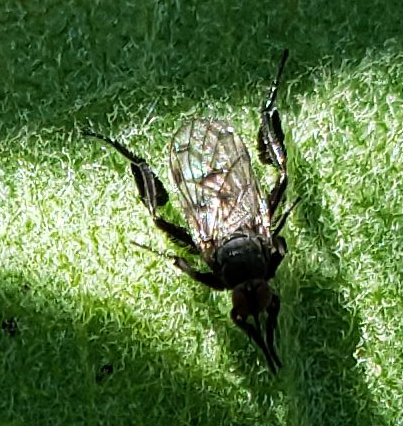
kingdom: Animalia
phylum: Arthropoda
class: Insecta
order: Diptera
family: Empididae
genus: Empis
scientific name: Empis clausa
